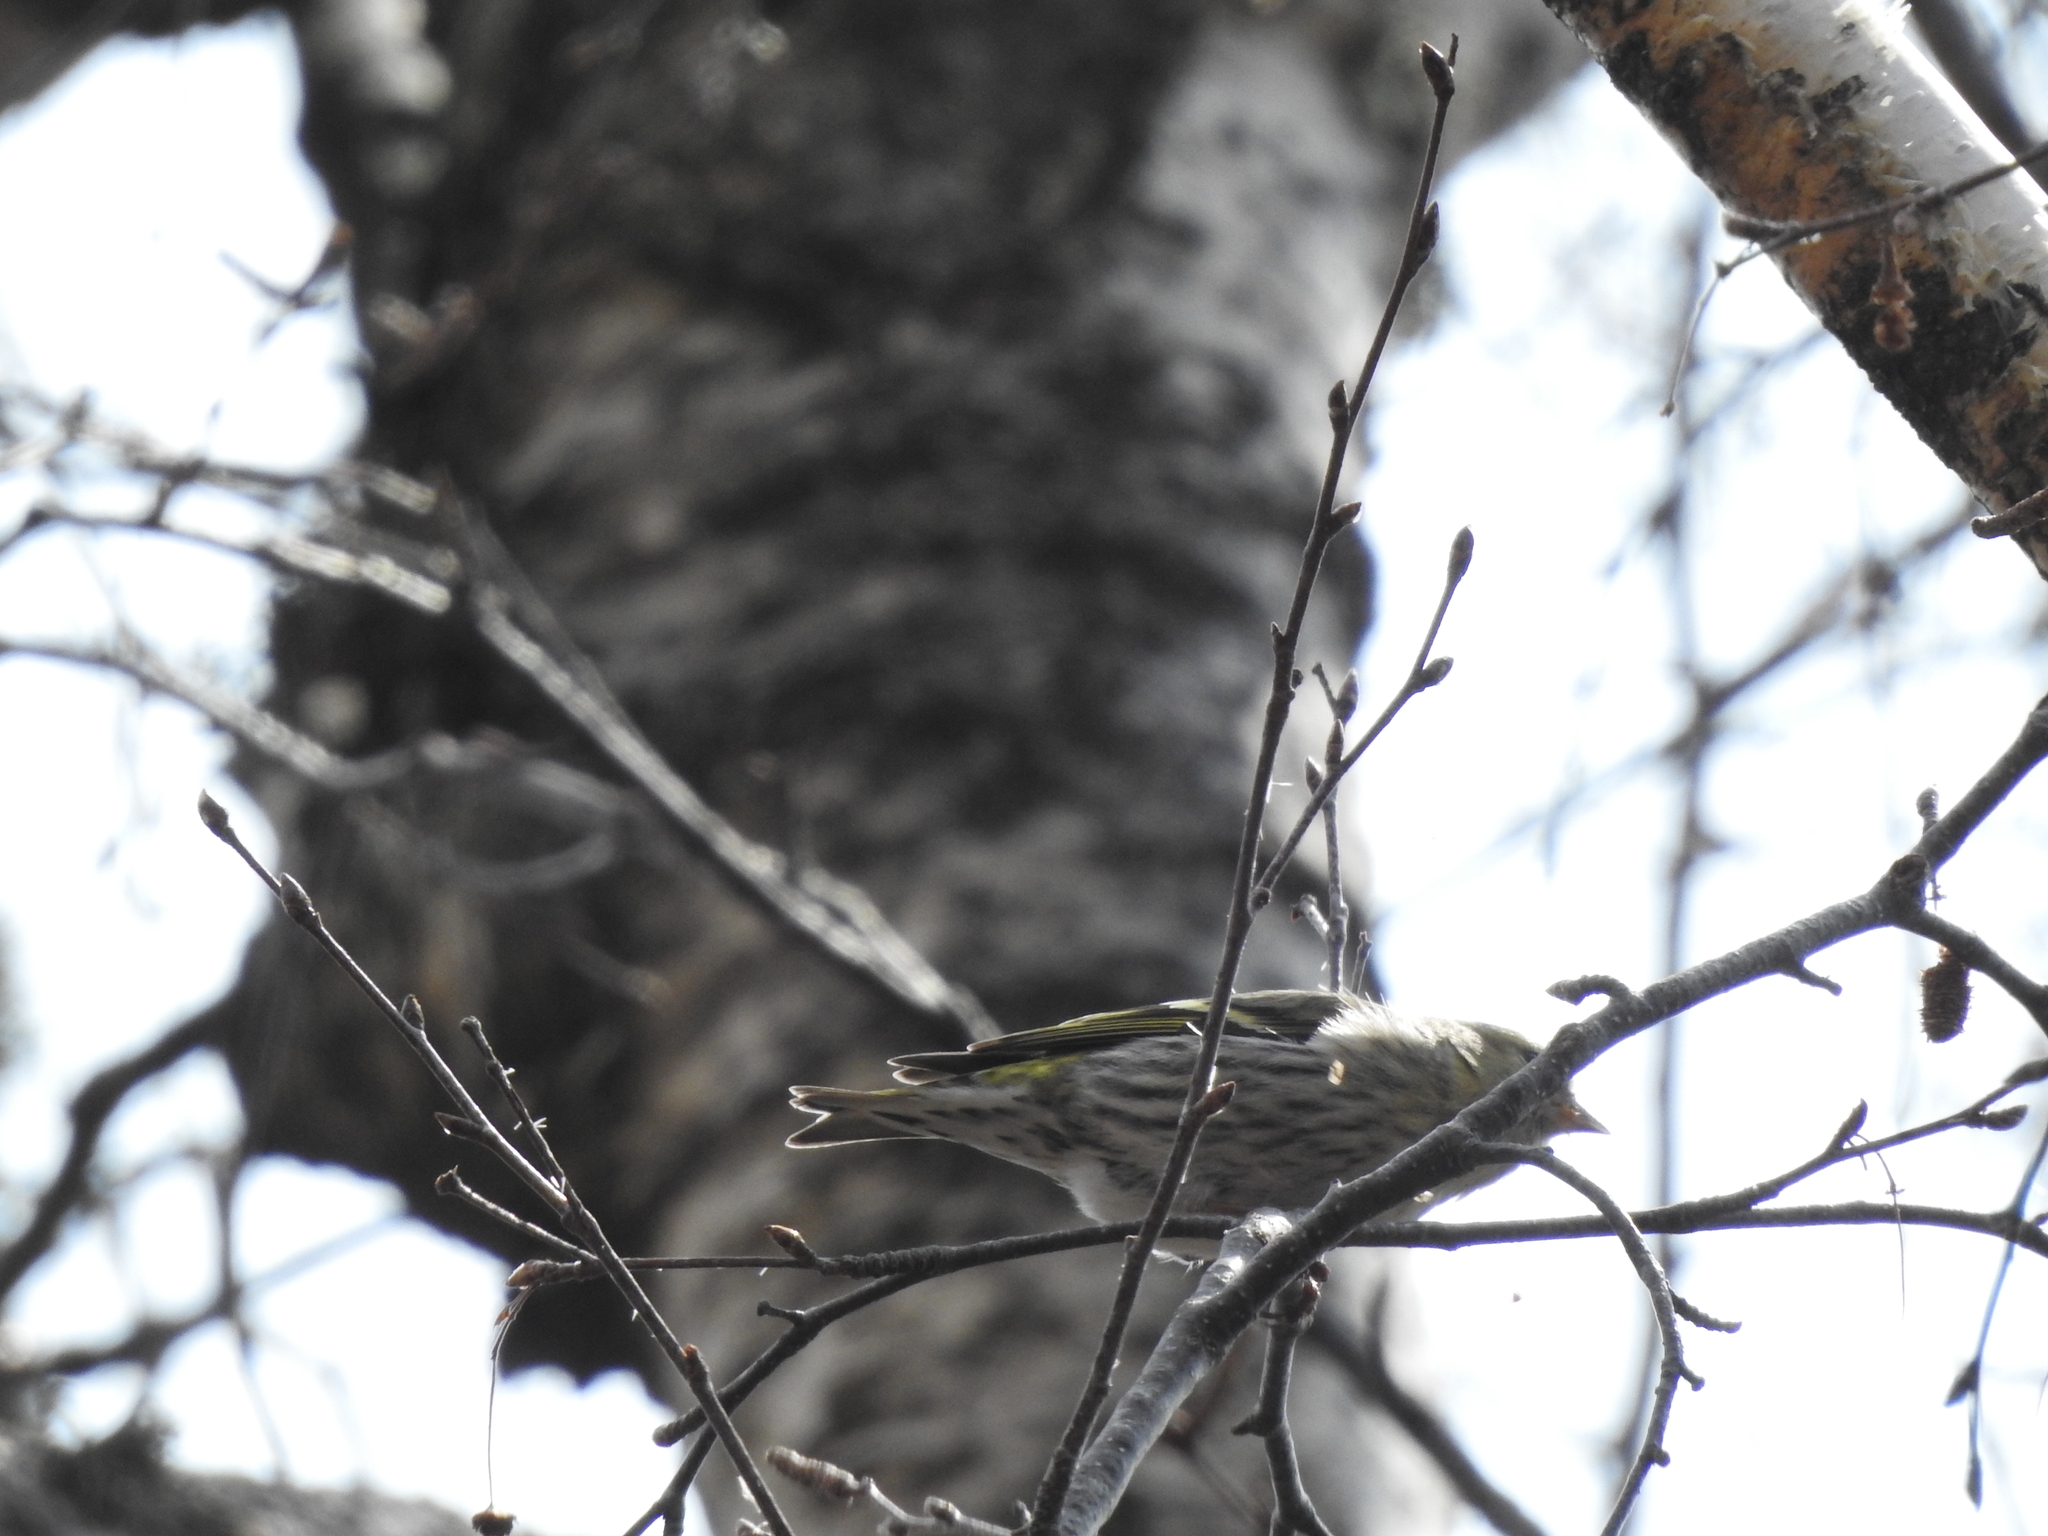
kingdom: Animalia
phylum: Chordata
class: Aves
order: Passeriformes
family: Fringillidae
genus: Spinus
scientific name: Spinus spinus
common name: Eurasian siskin
